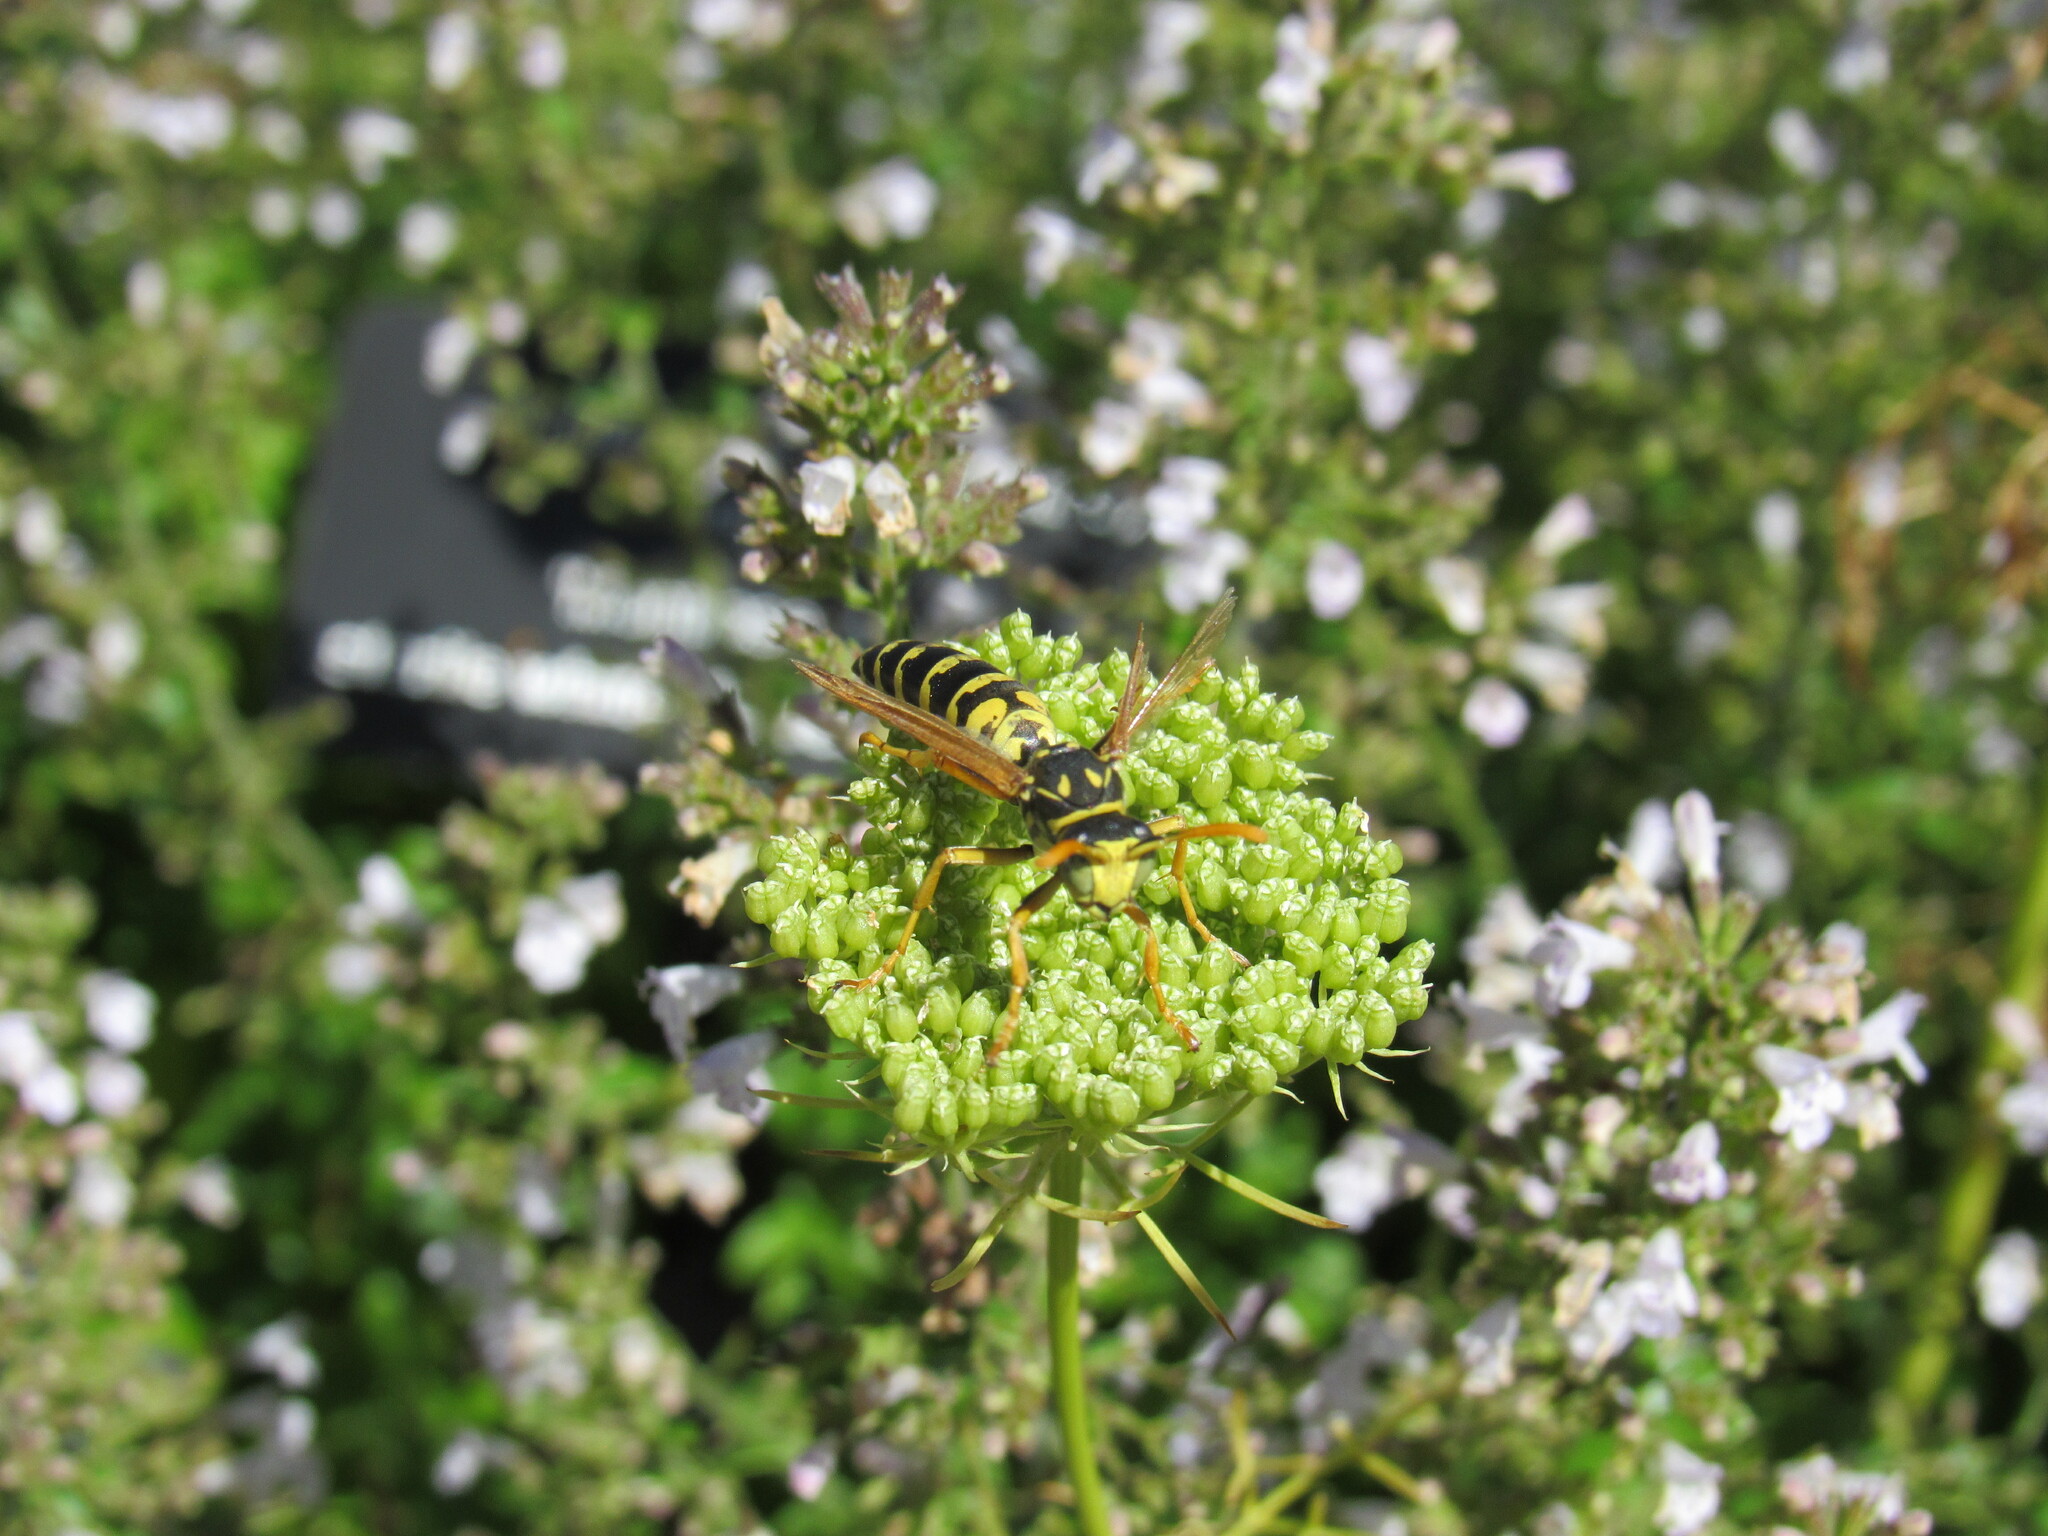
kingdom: Animalia
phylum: Arthropoda
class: Insecta
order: Hymenoptera
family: Eumenidae
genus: Polistes
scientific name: Polistes dominula
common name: Paper wasp
